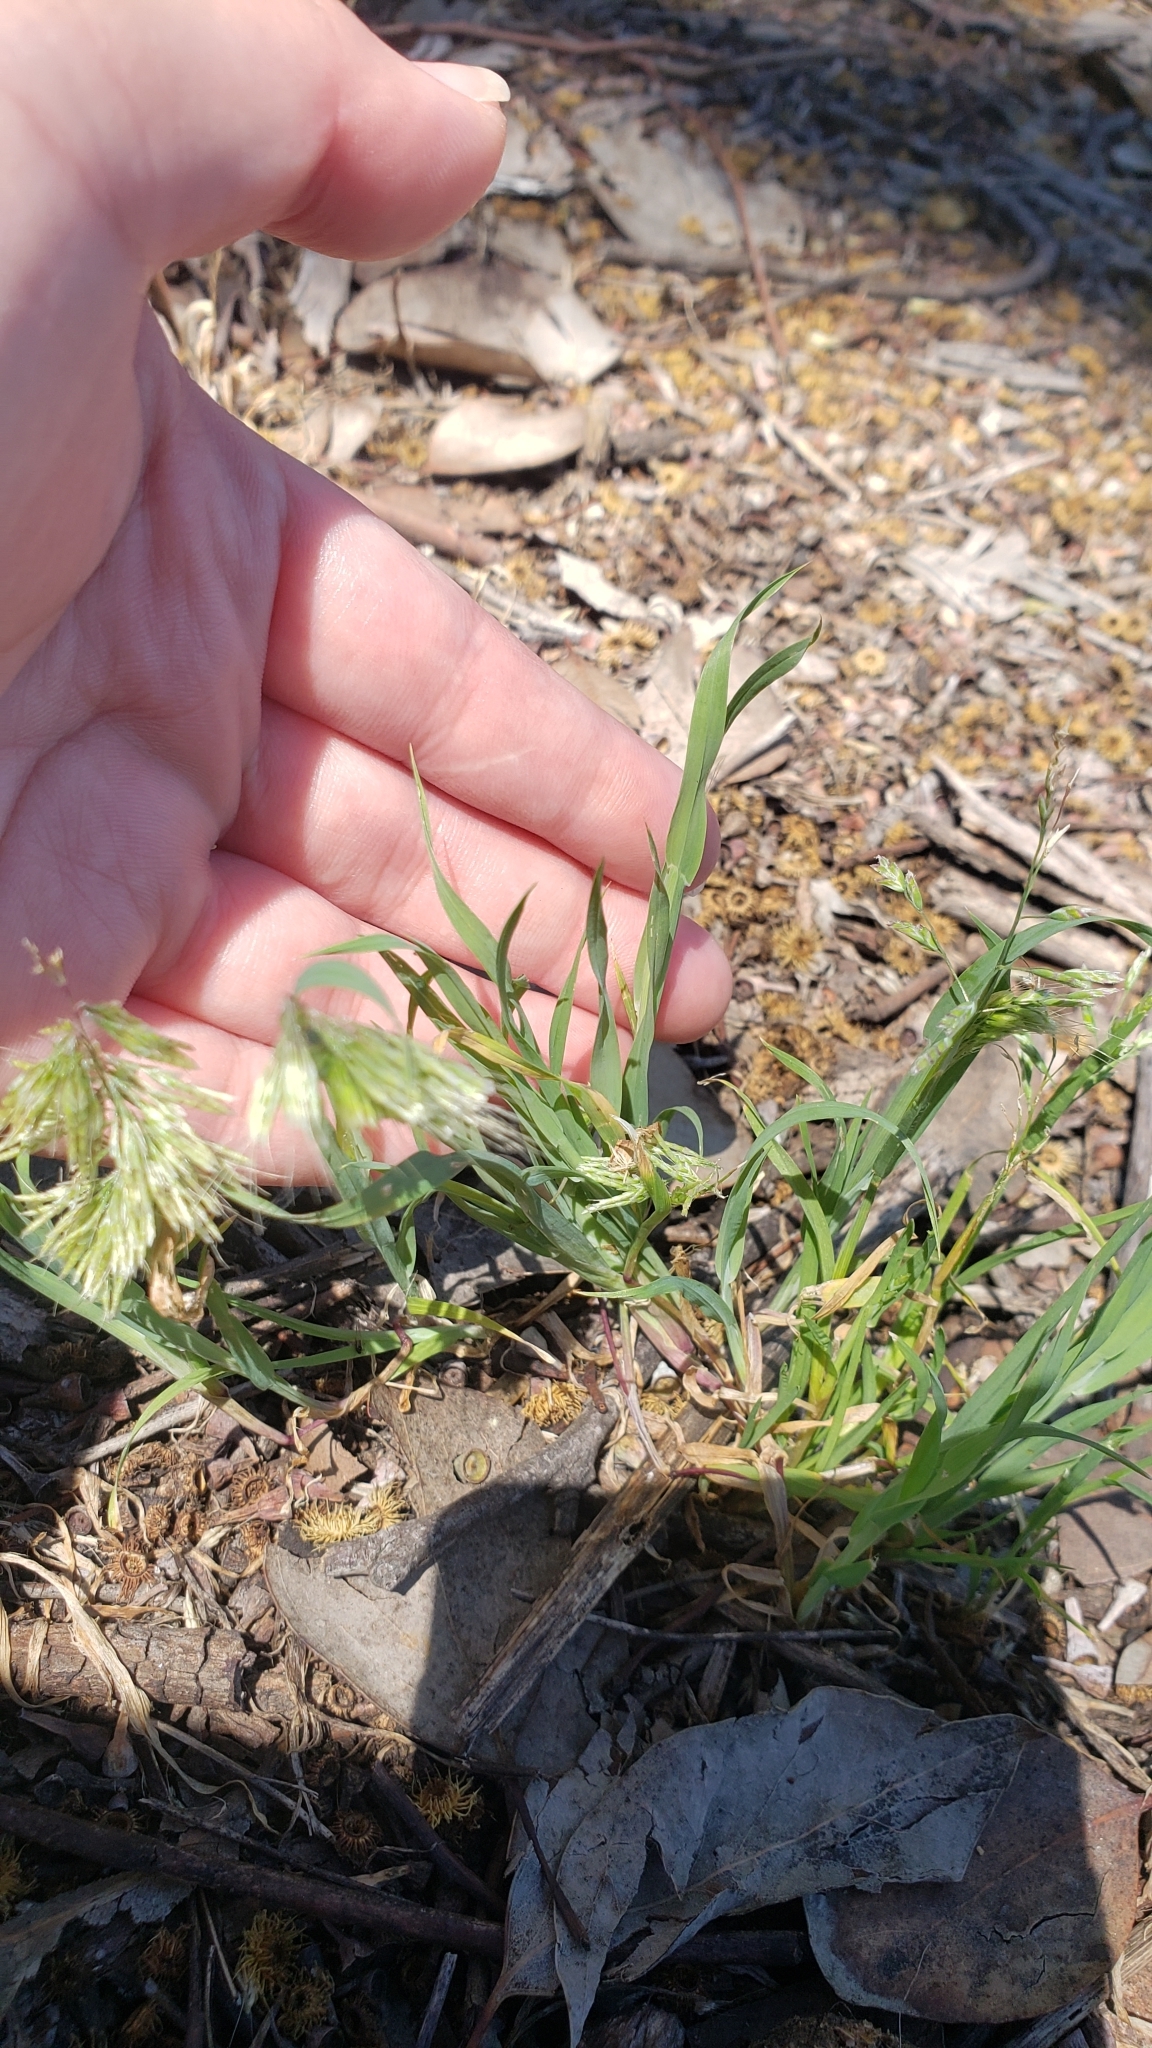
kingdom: Plantae
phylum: Tracheophyta
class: Liliopsida
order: Poales
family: Poaceae
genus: Lamarckia
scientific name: Lamarckia aurea
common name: Golden dog's-tail
